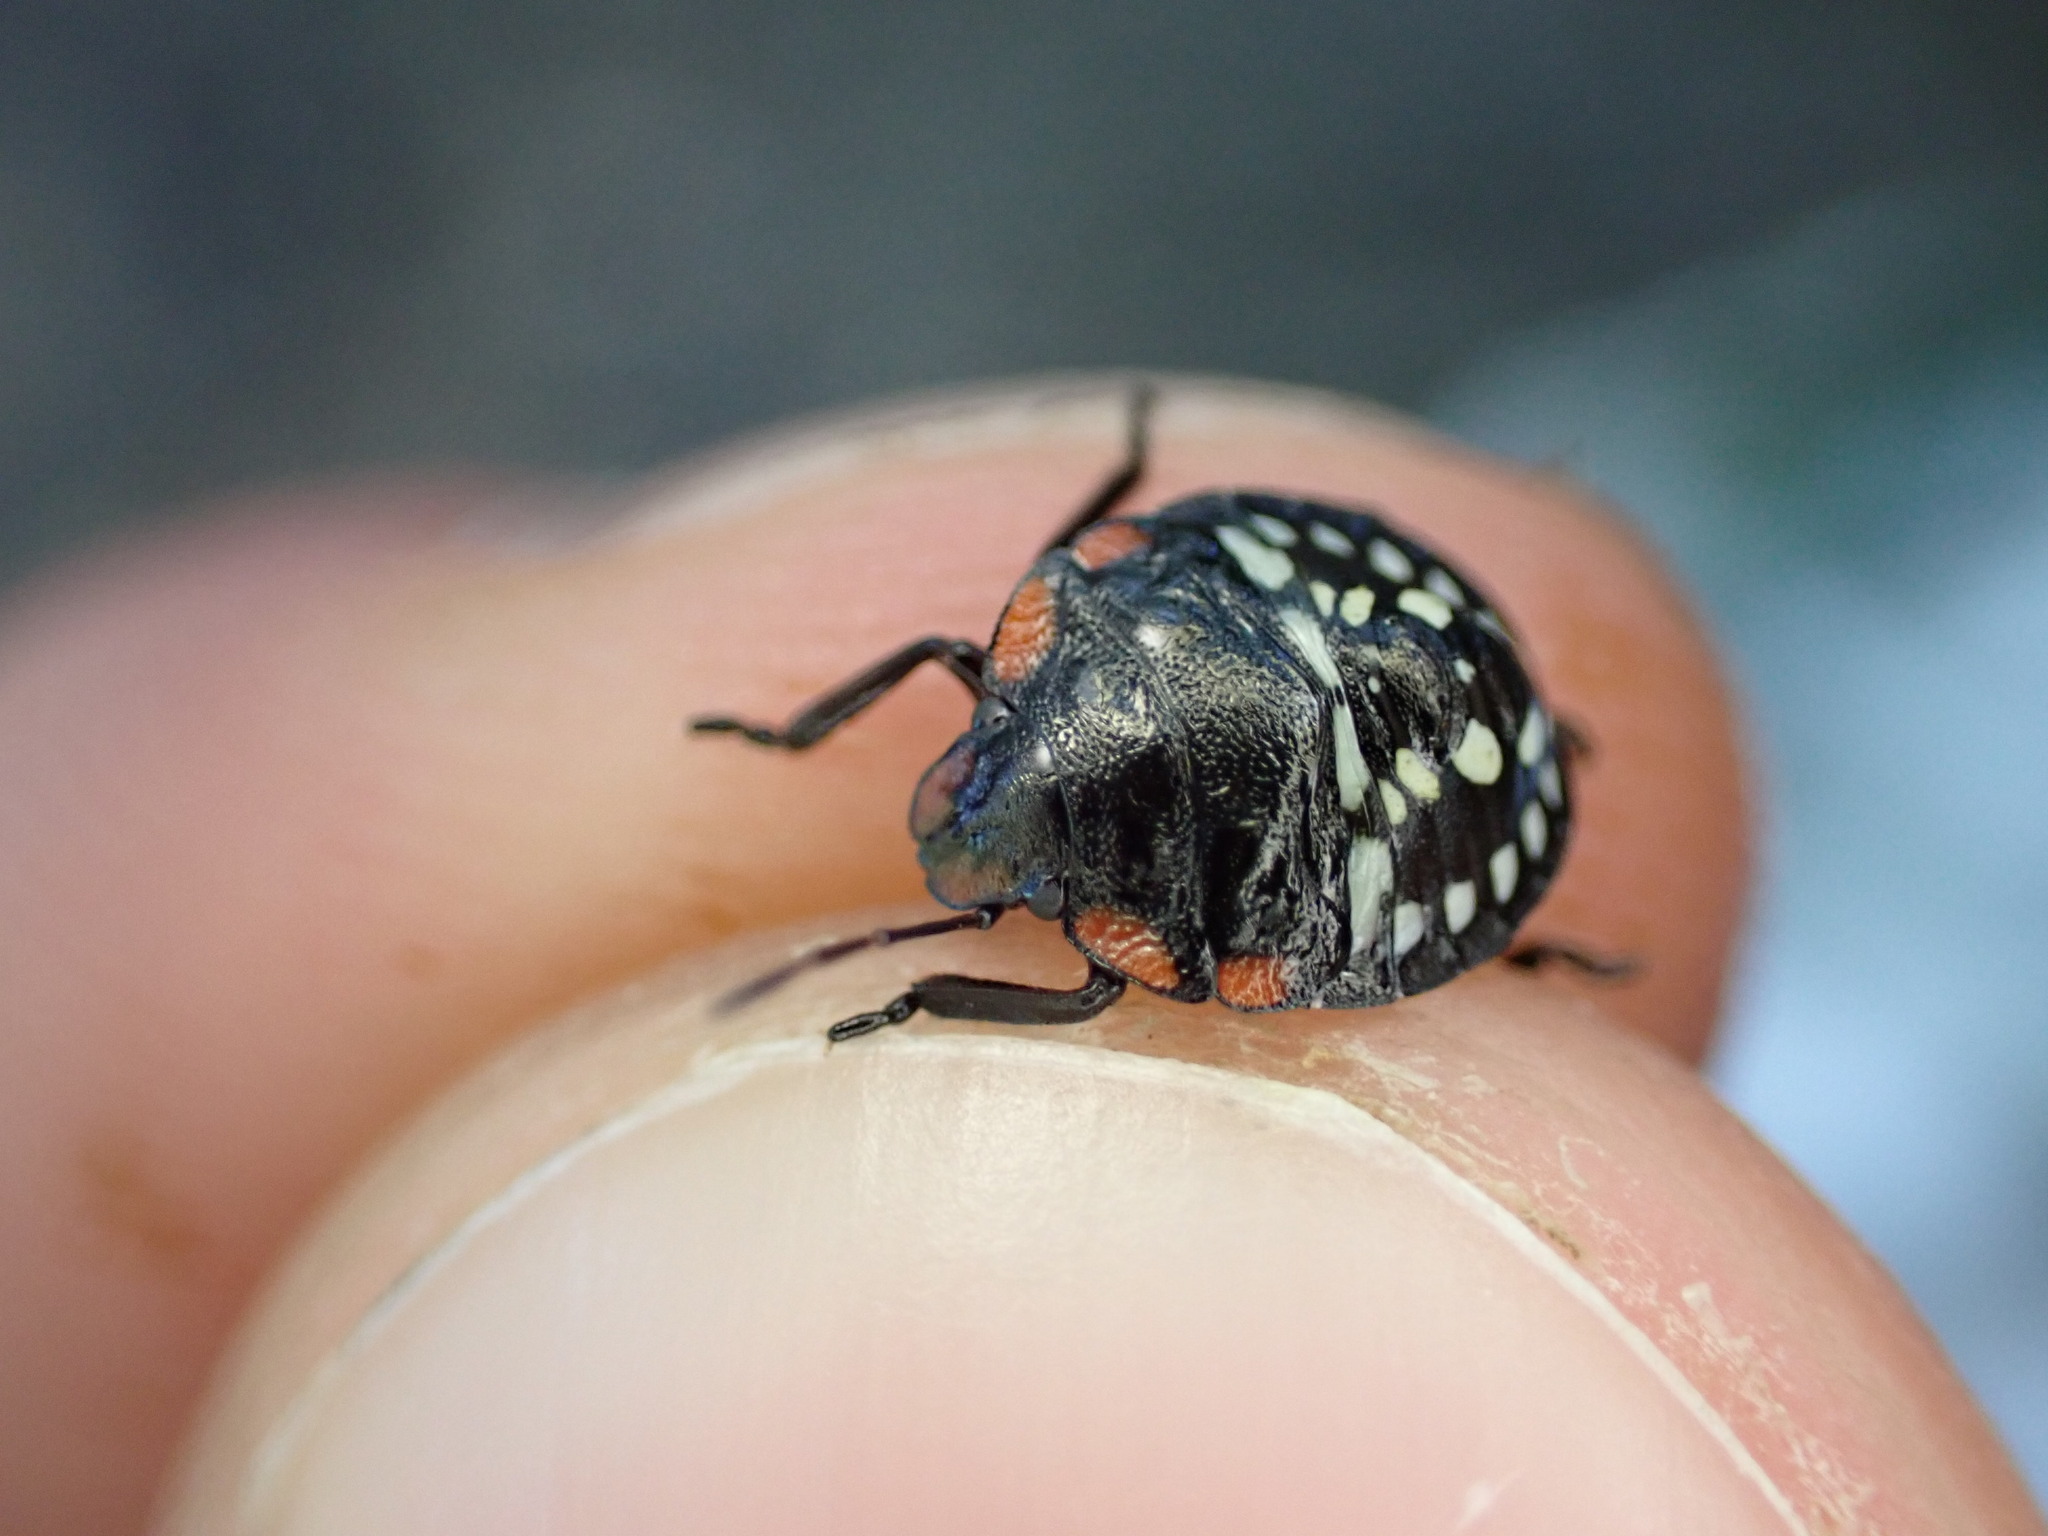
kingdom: Animalia
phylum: Arthropoda
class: Insecta
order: Hemiptera
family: Pentatomidae
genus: Nezara
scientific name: Nezara viridula
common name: Southern green stink bug
